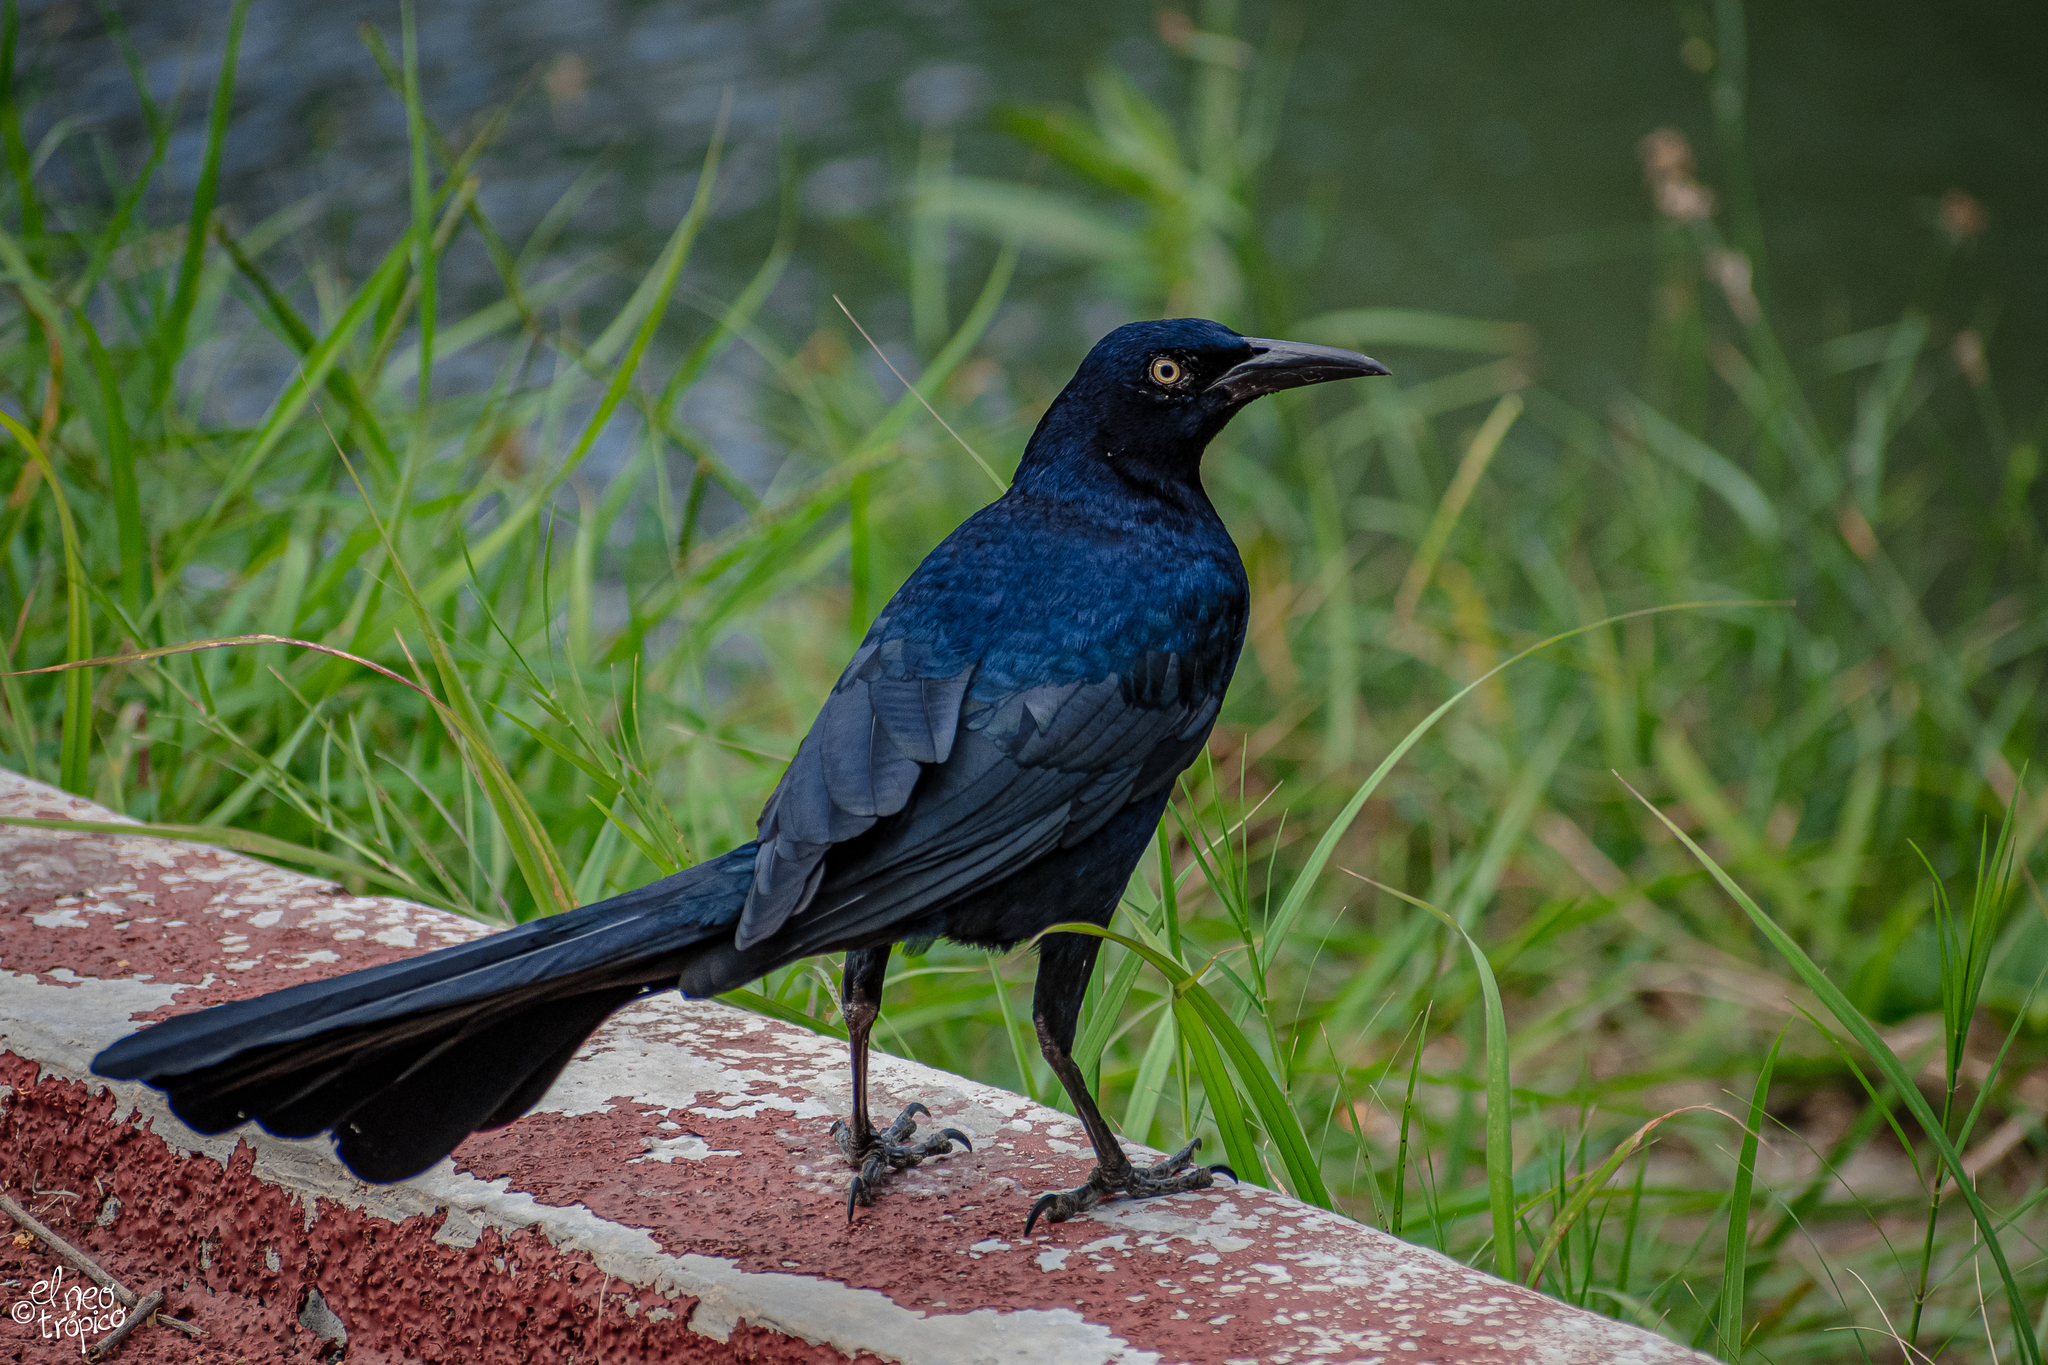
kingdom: Animalia
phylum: Chordata
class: Aves
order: Passeriformes
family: Icteridae
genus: Quiscalus
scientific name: Quiscalus mexicanus
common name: Great-tailed grackle
